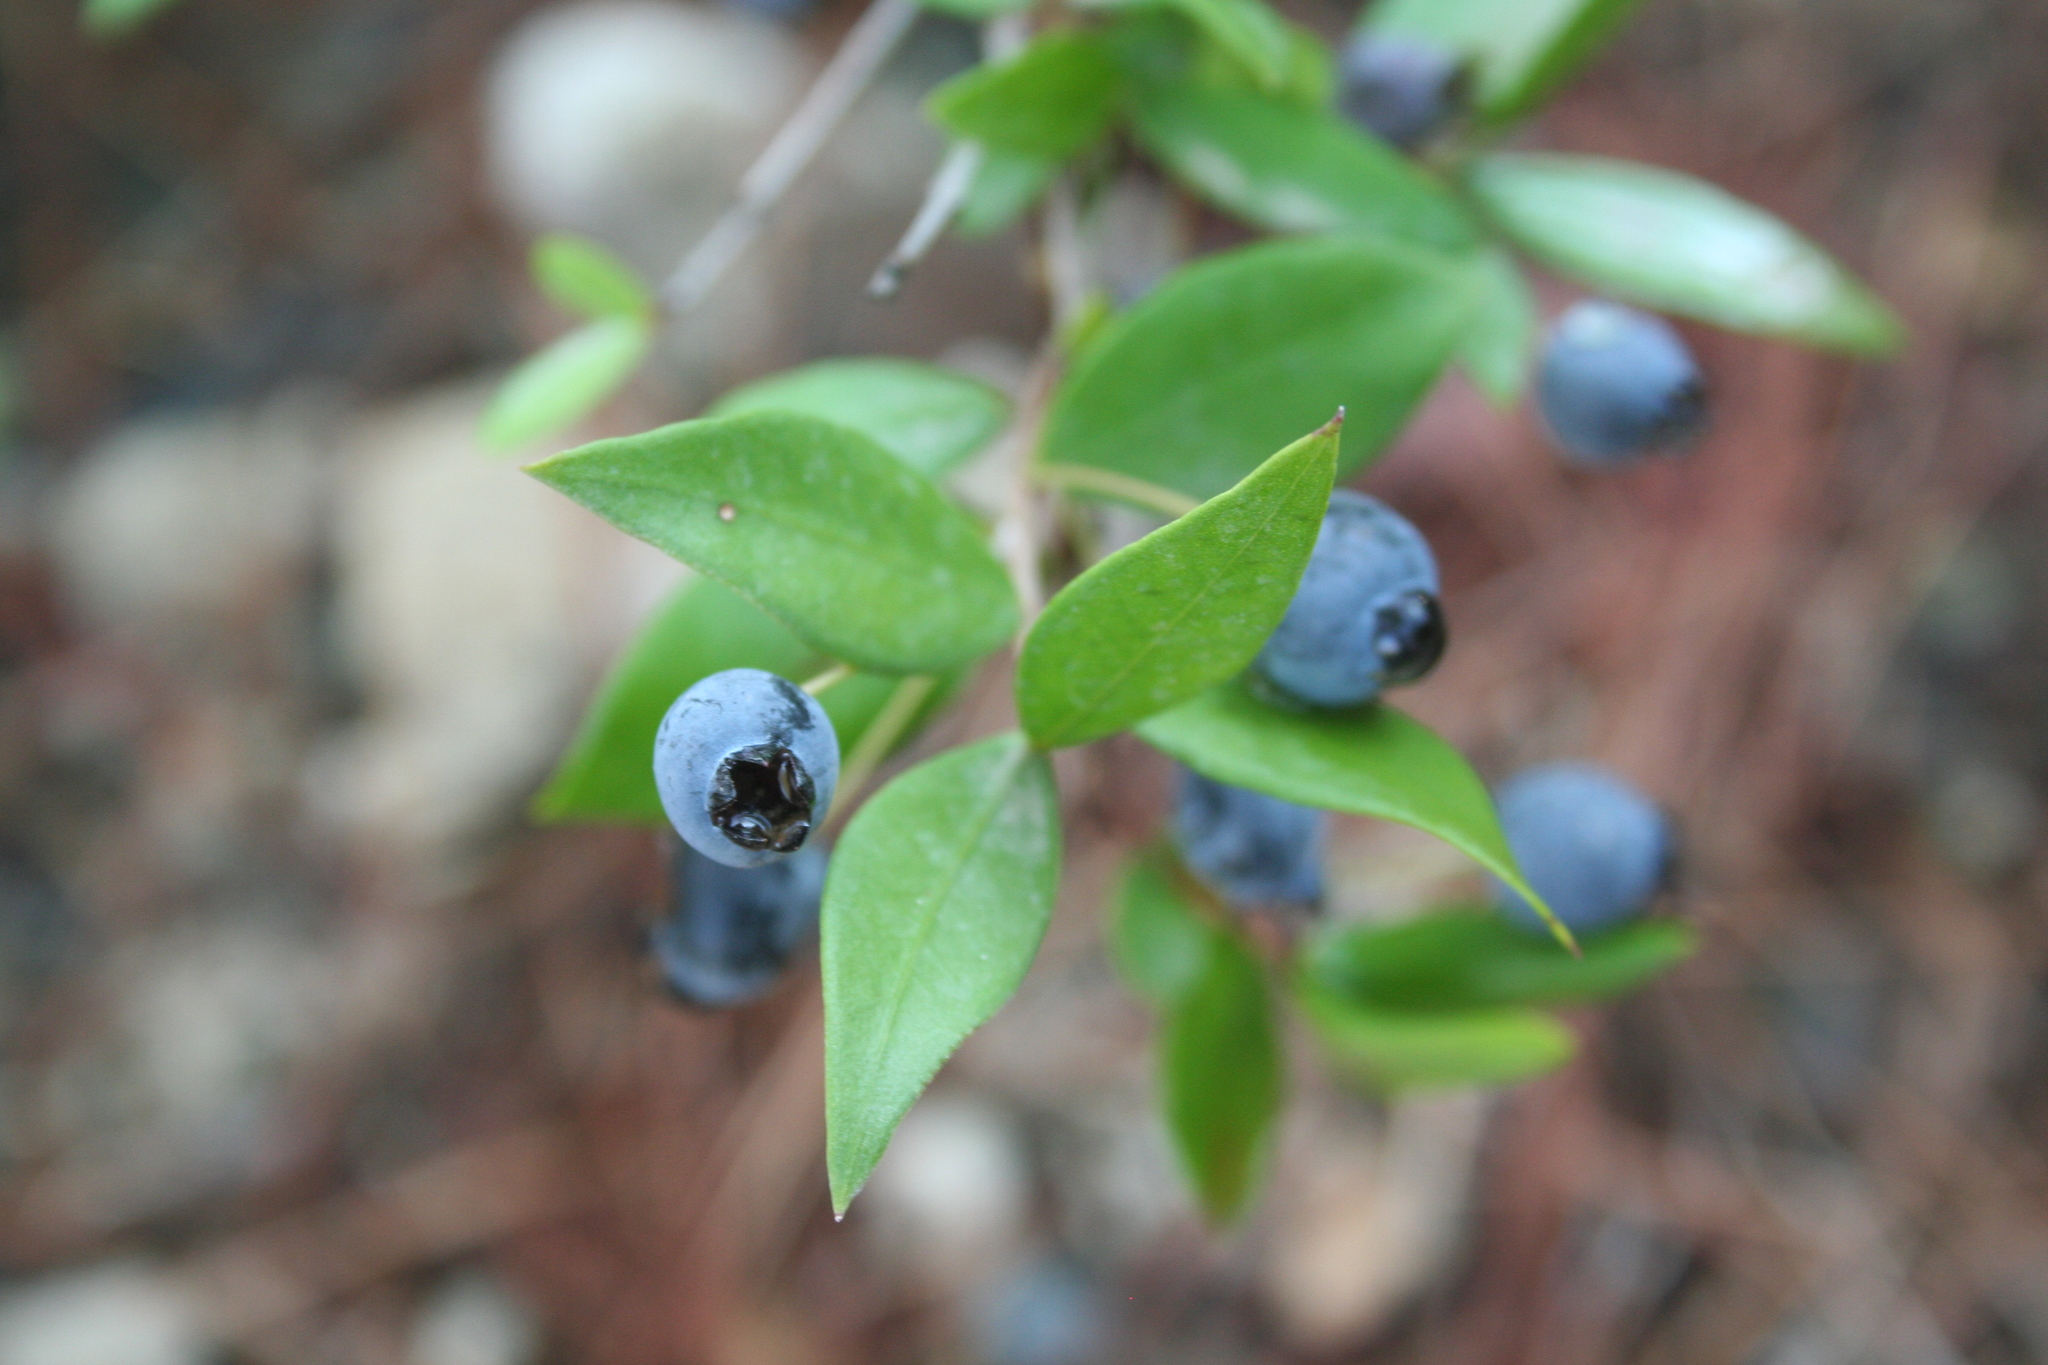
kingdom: Plantae
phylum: Tracheophyta
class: Magnoliopsida
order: Myrtales
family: Myrtaceae
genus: Myrtus
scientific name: Myrtus communis
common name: Myrtle
